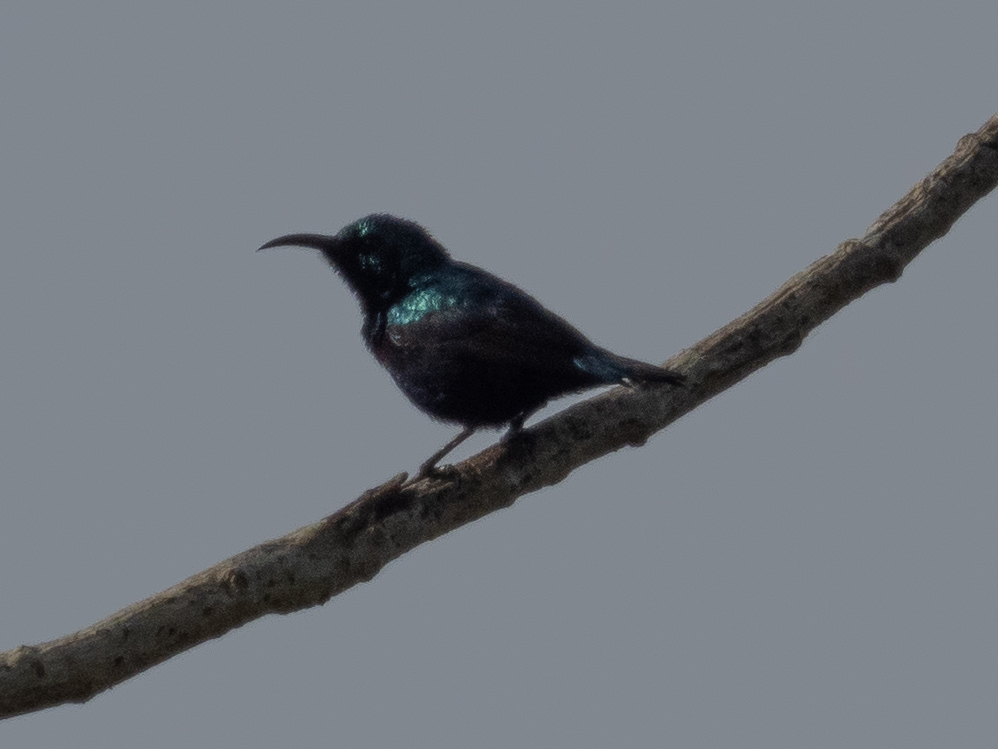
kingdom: Animalia
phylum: Chordata
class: Aves
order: Passeriformes
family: Nectariniidae
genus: Cinnyris
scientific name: Cinnyris asiaticus
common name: Purple sunbird
